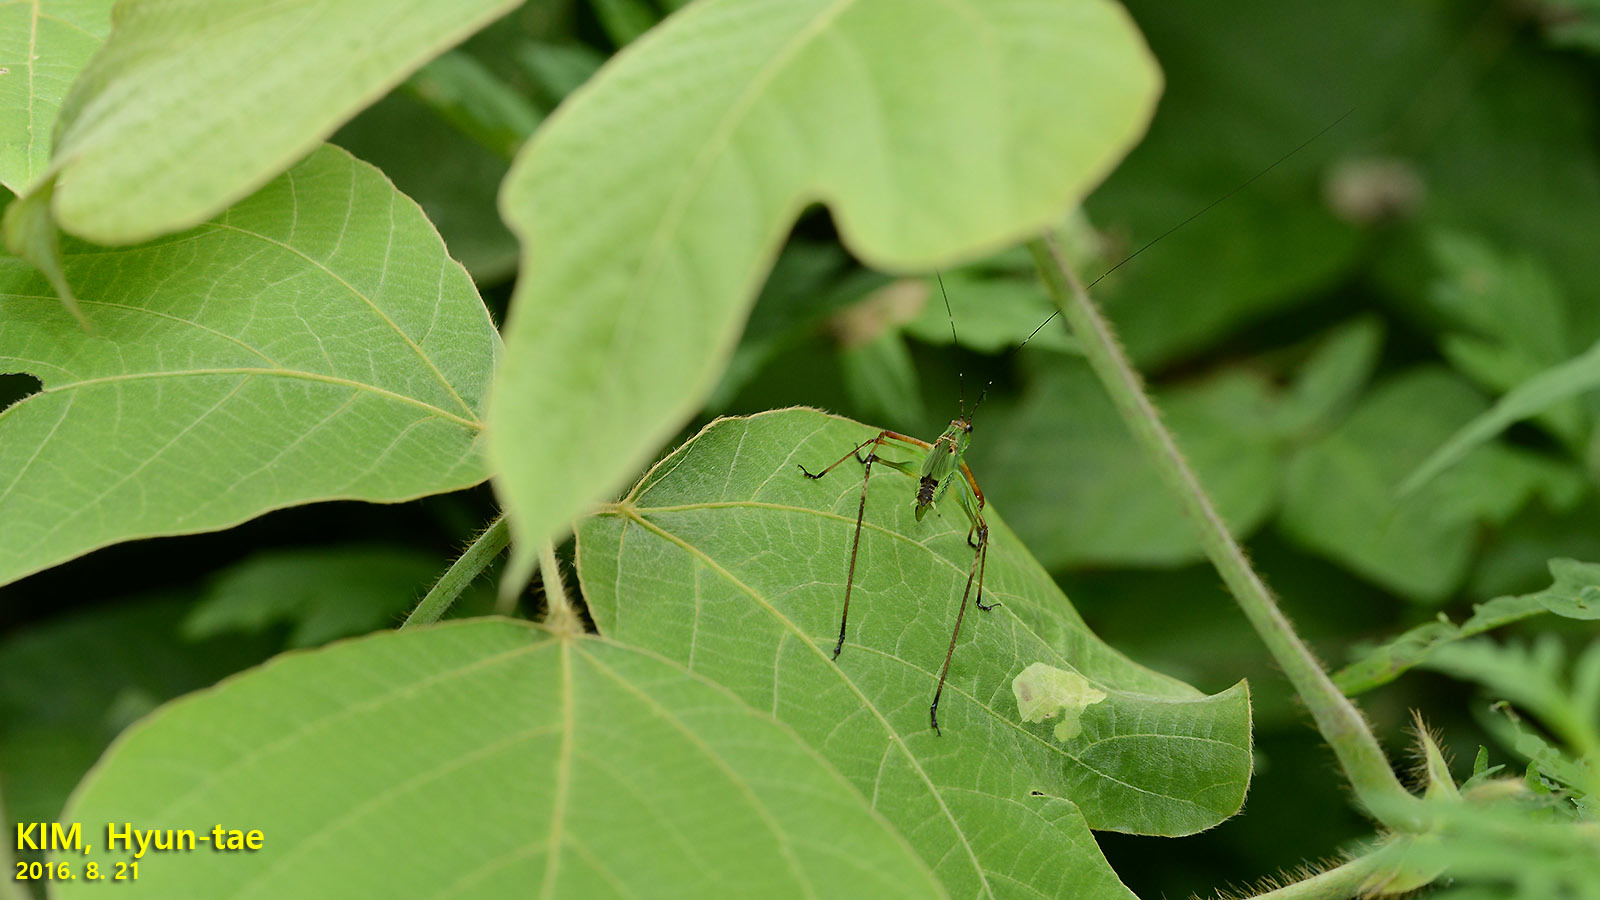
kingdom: Animalia
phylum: Arthropoda
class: Insecta
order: Orthoptera
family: Tettigoniidae
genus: Phaneroptera
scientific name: Phaneroptera nigroantennata
